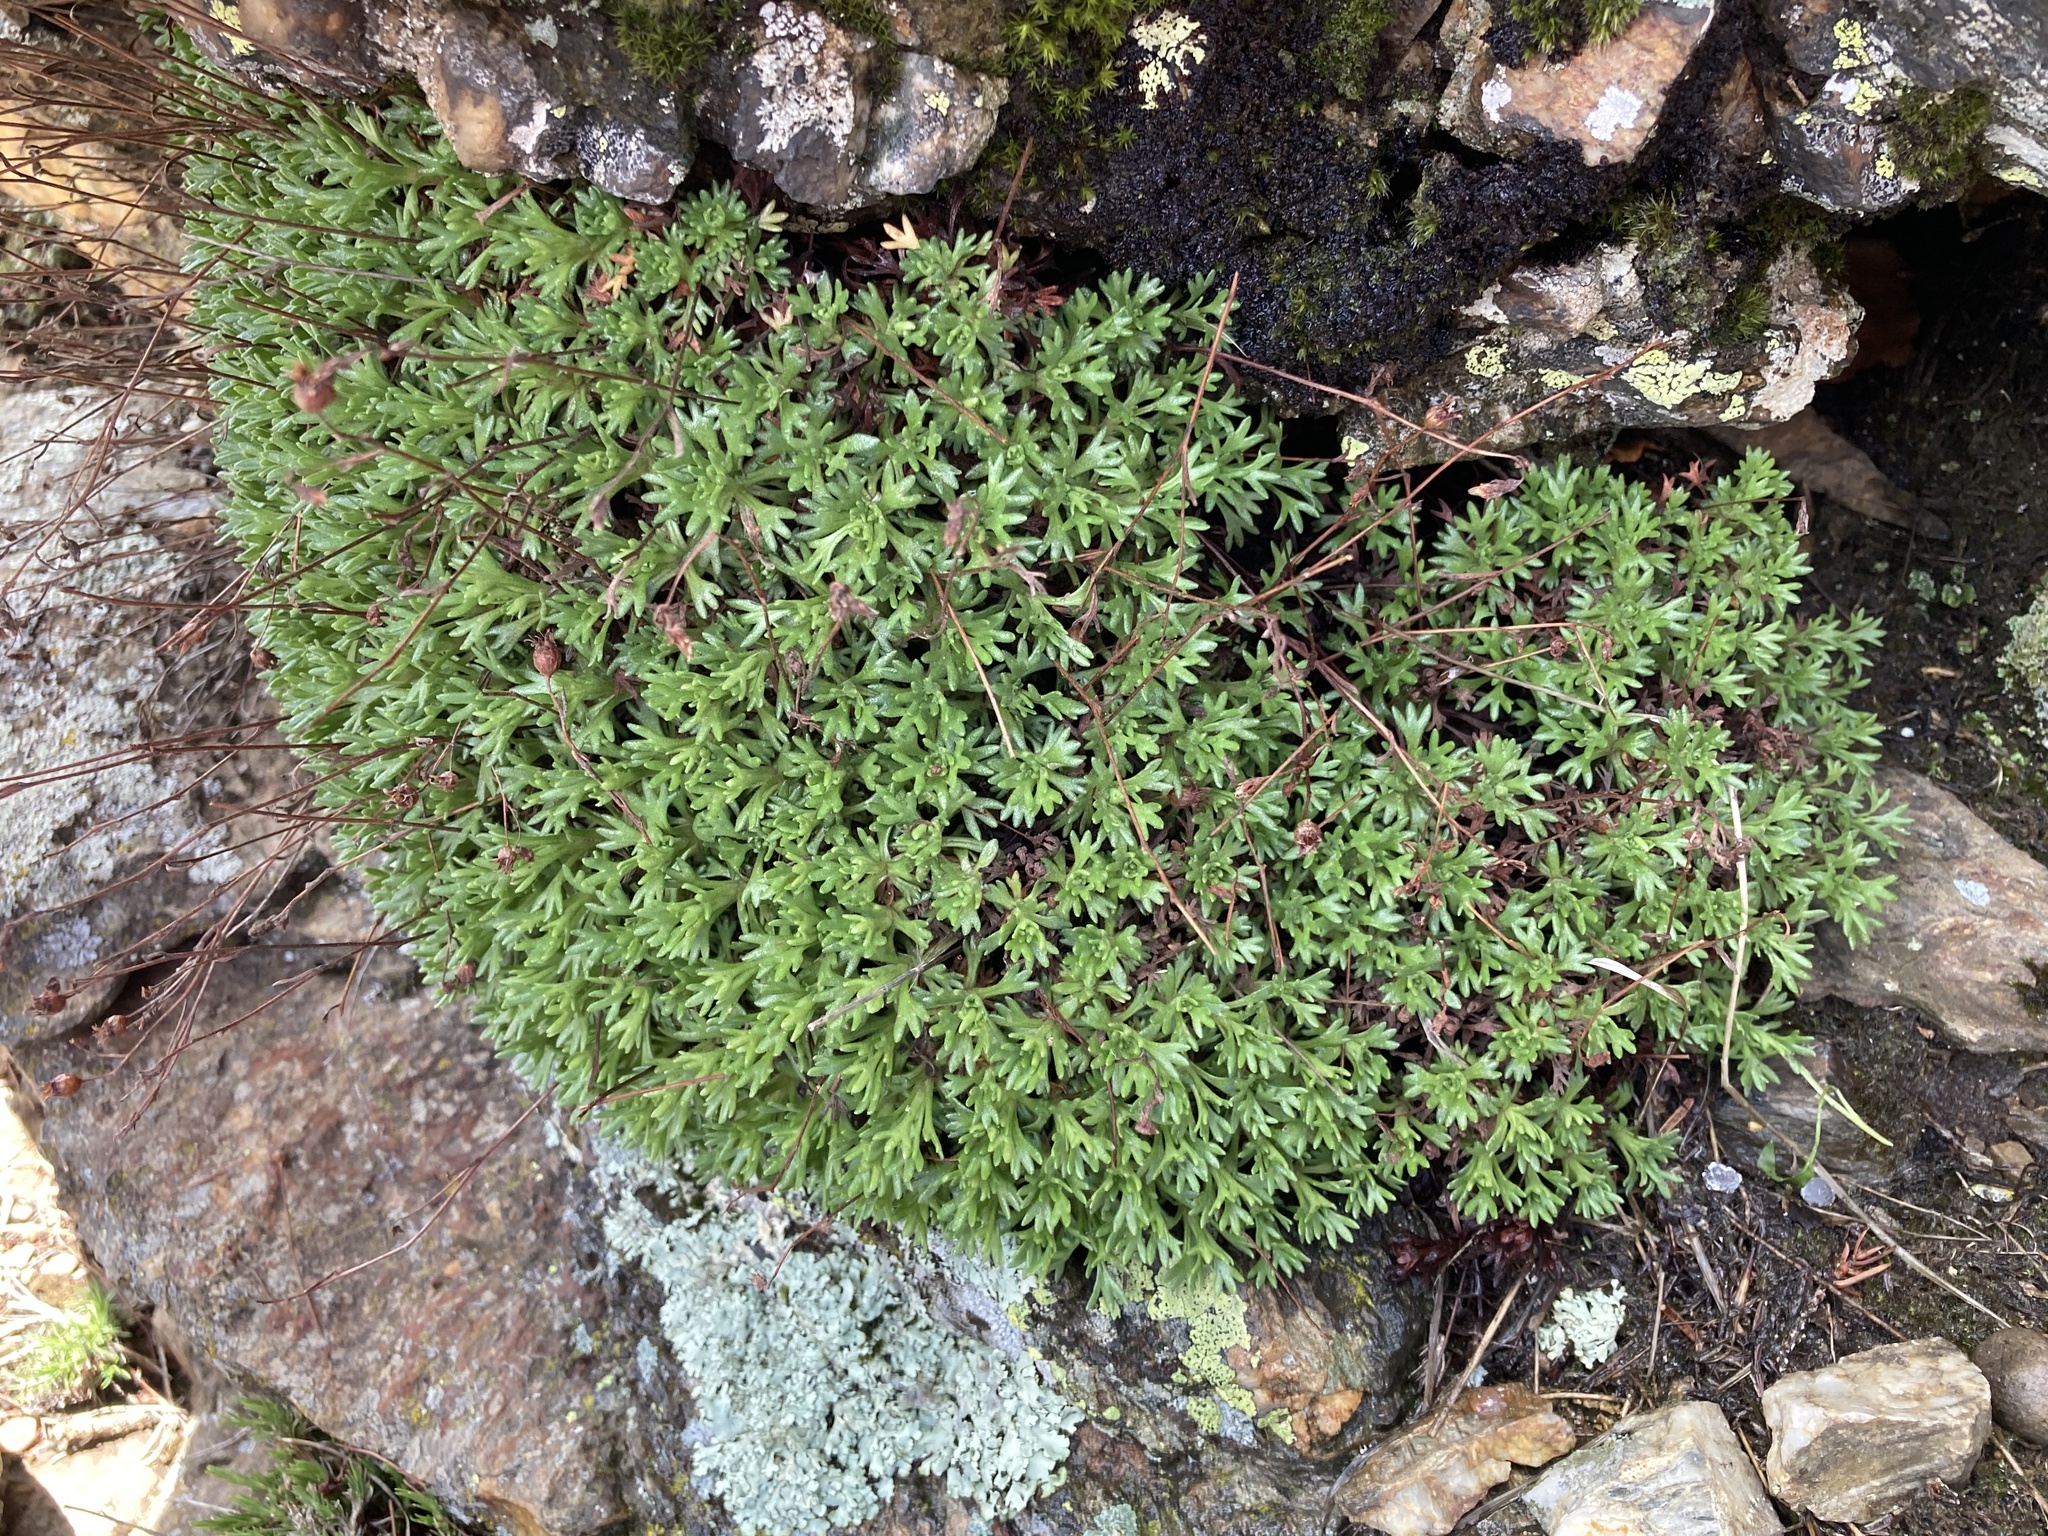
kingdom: Plantae
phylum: Tracheophyta
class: Magnoliopsida
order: Saxifragales
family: Saxifragaceae
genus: Saxifraga
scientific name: Saxifraga vayredana
